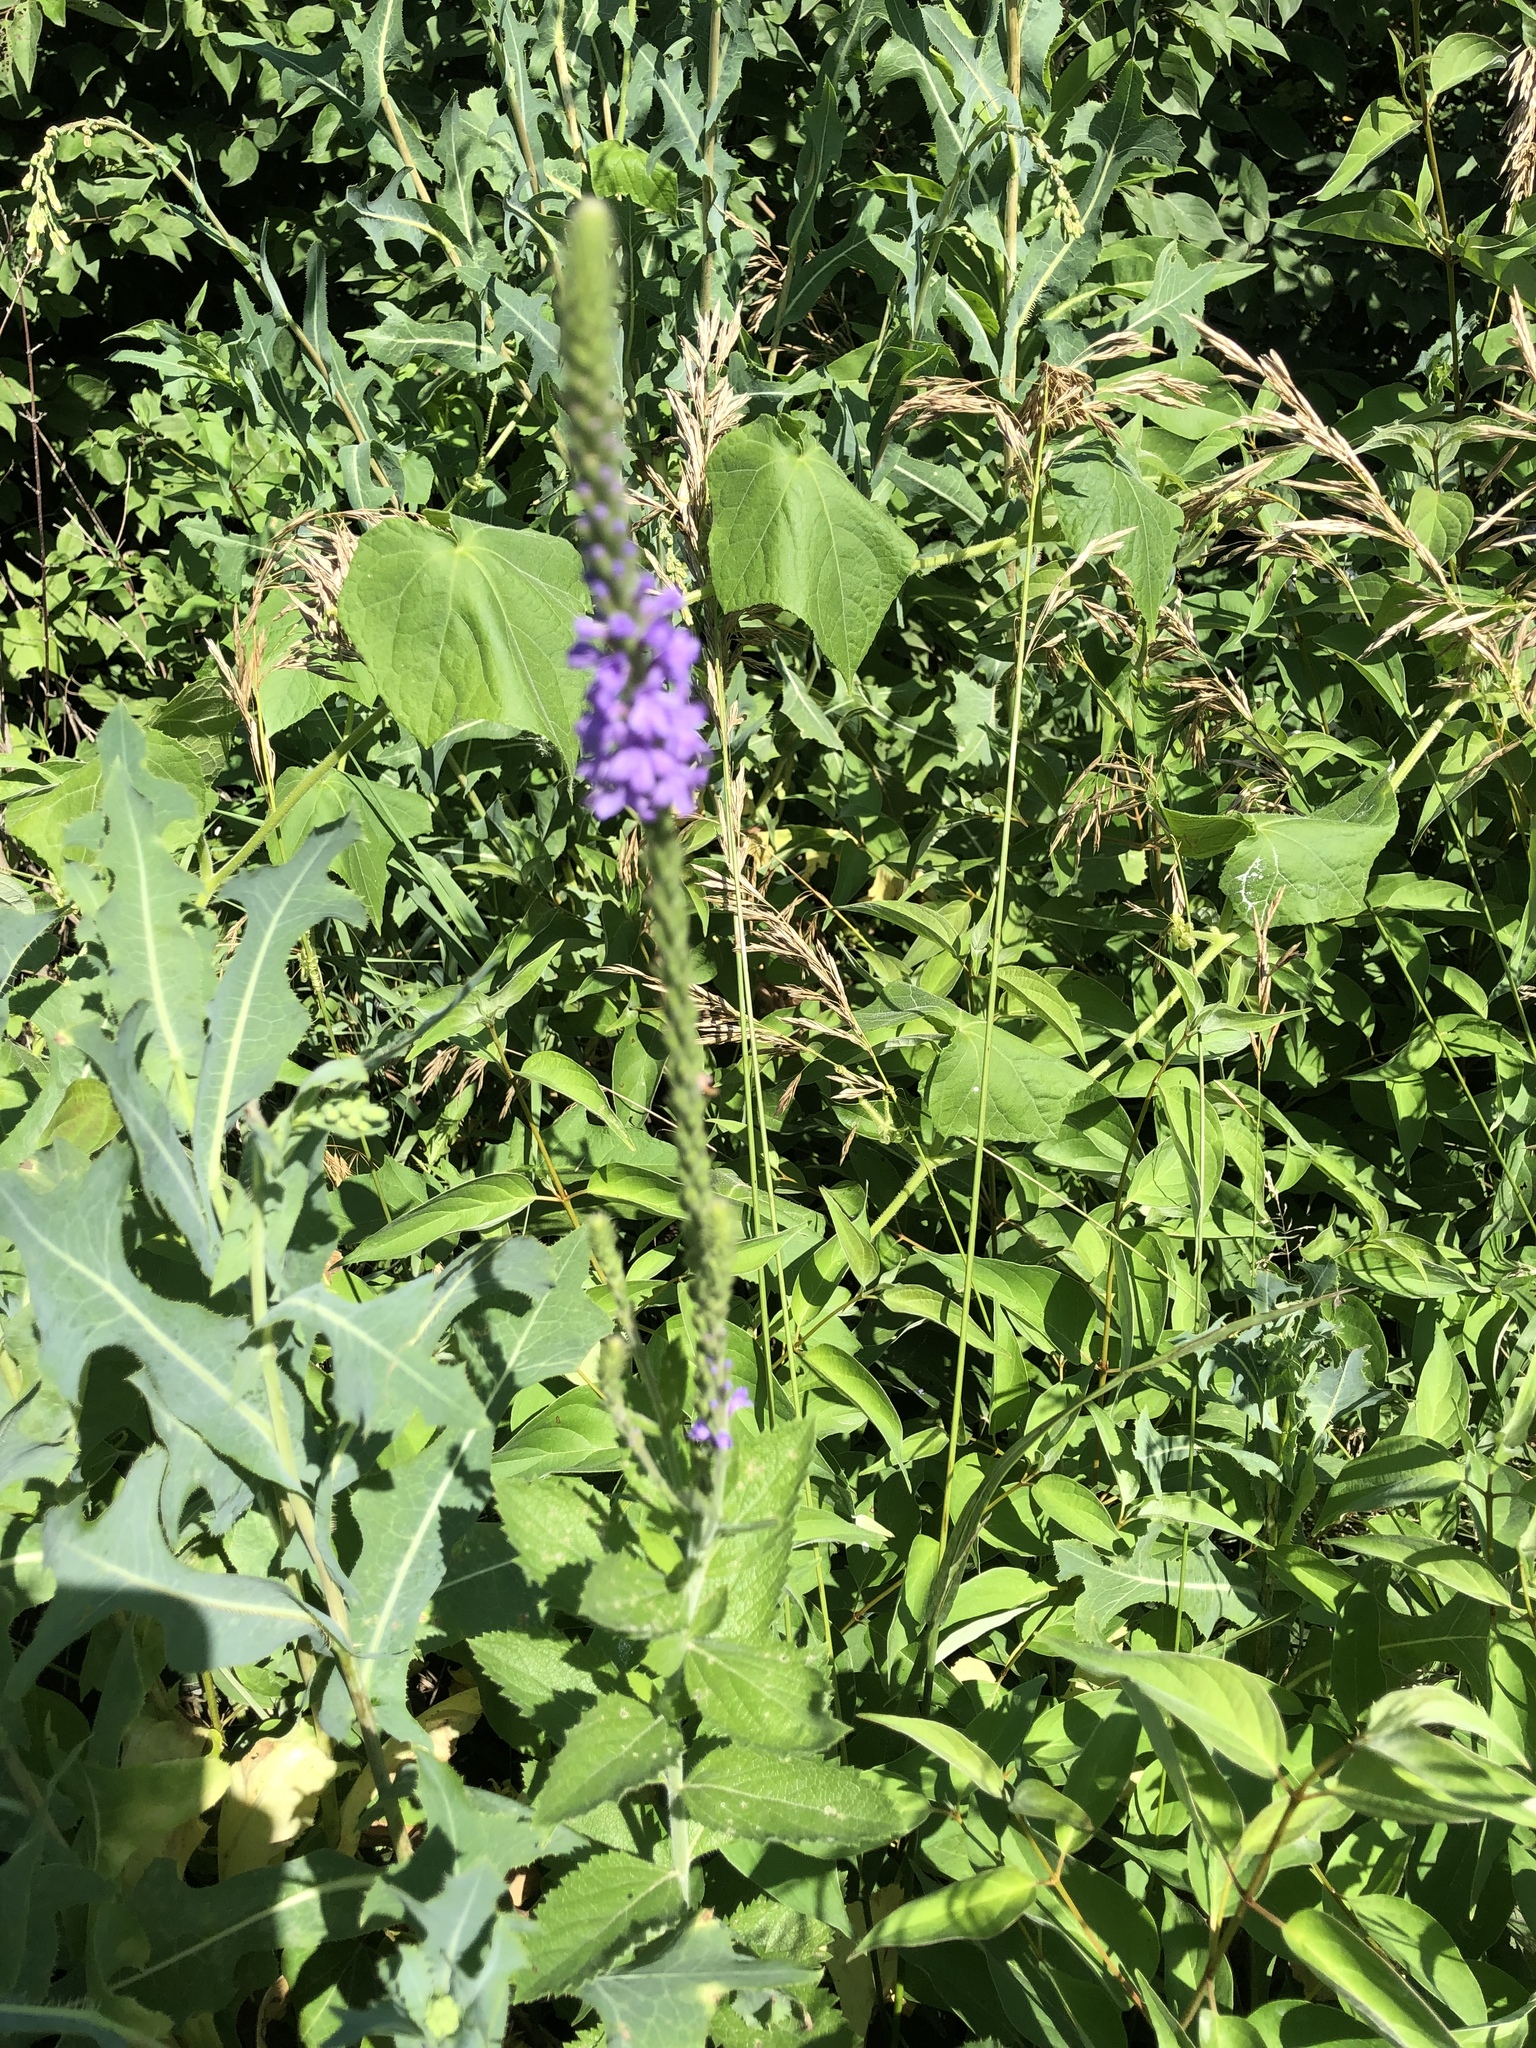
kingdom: Plantae
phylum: Tracheophyta
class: Magnoliopsida
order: Lamiales
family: Verbenaceae
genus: Verbena
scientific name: Verbena stricta
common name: Hoary vervain
